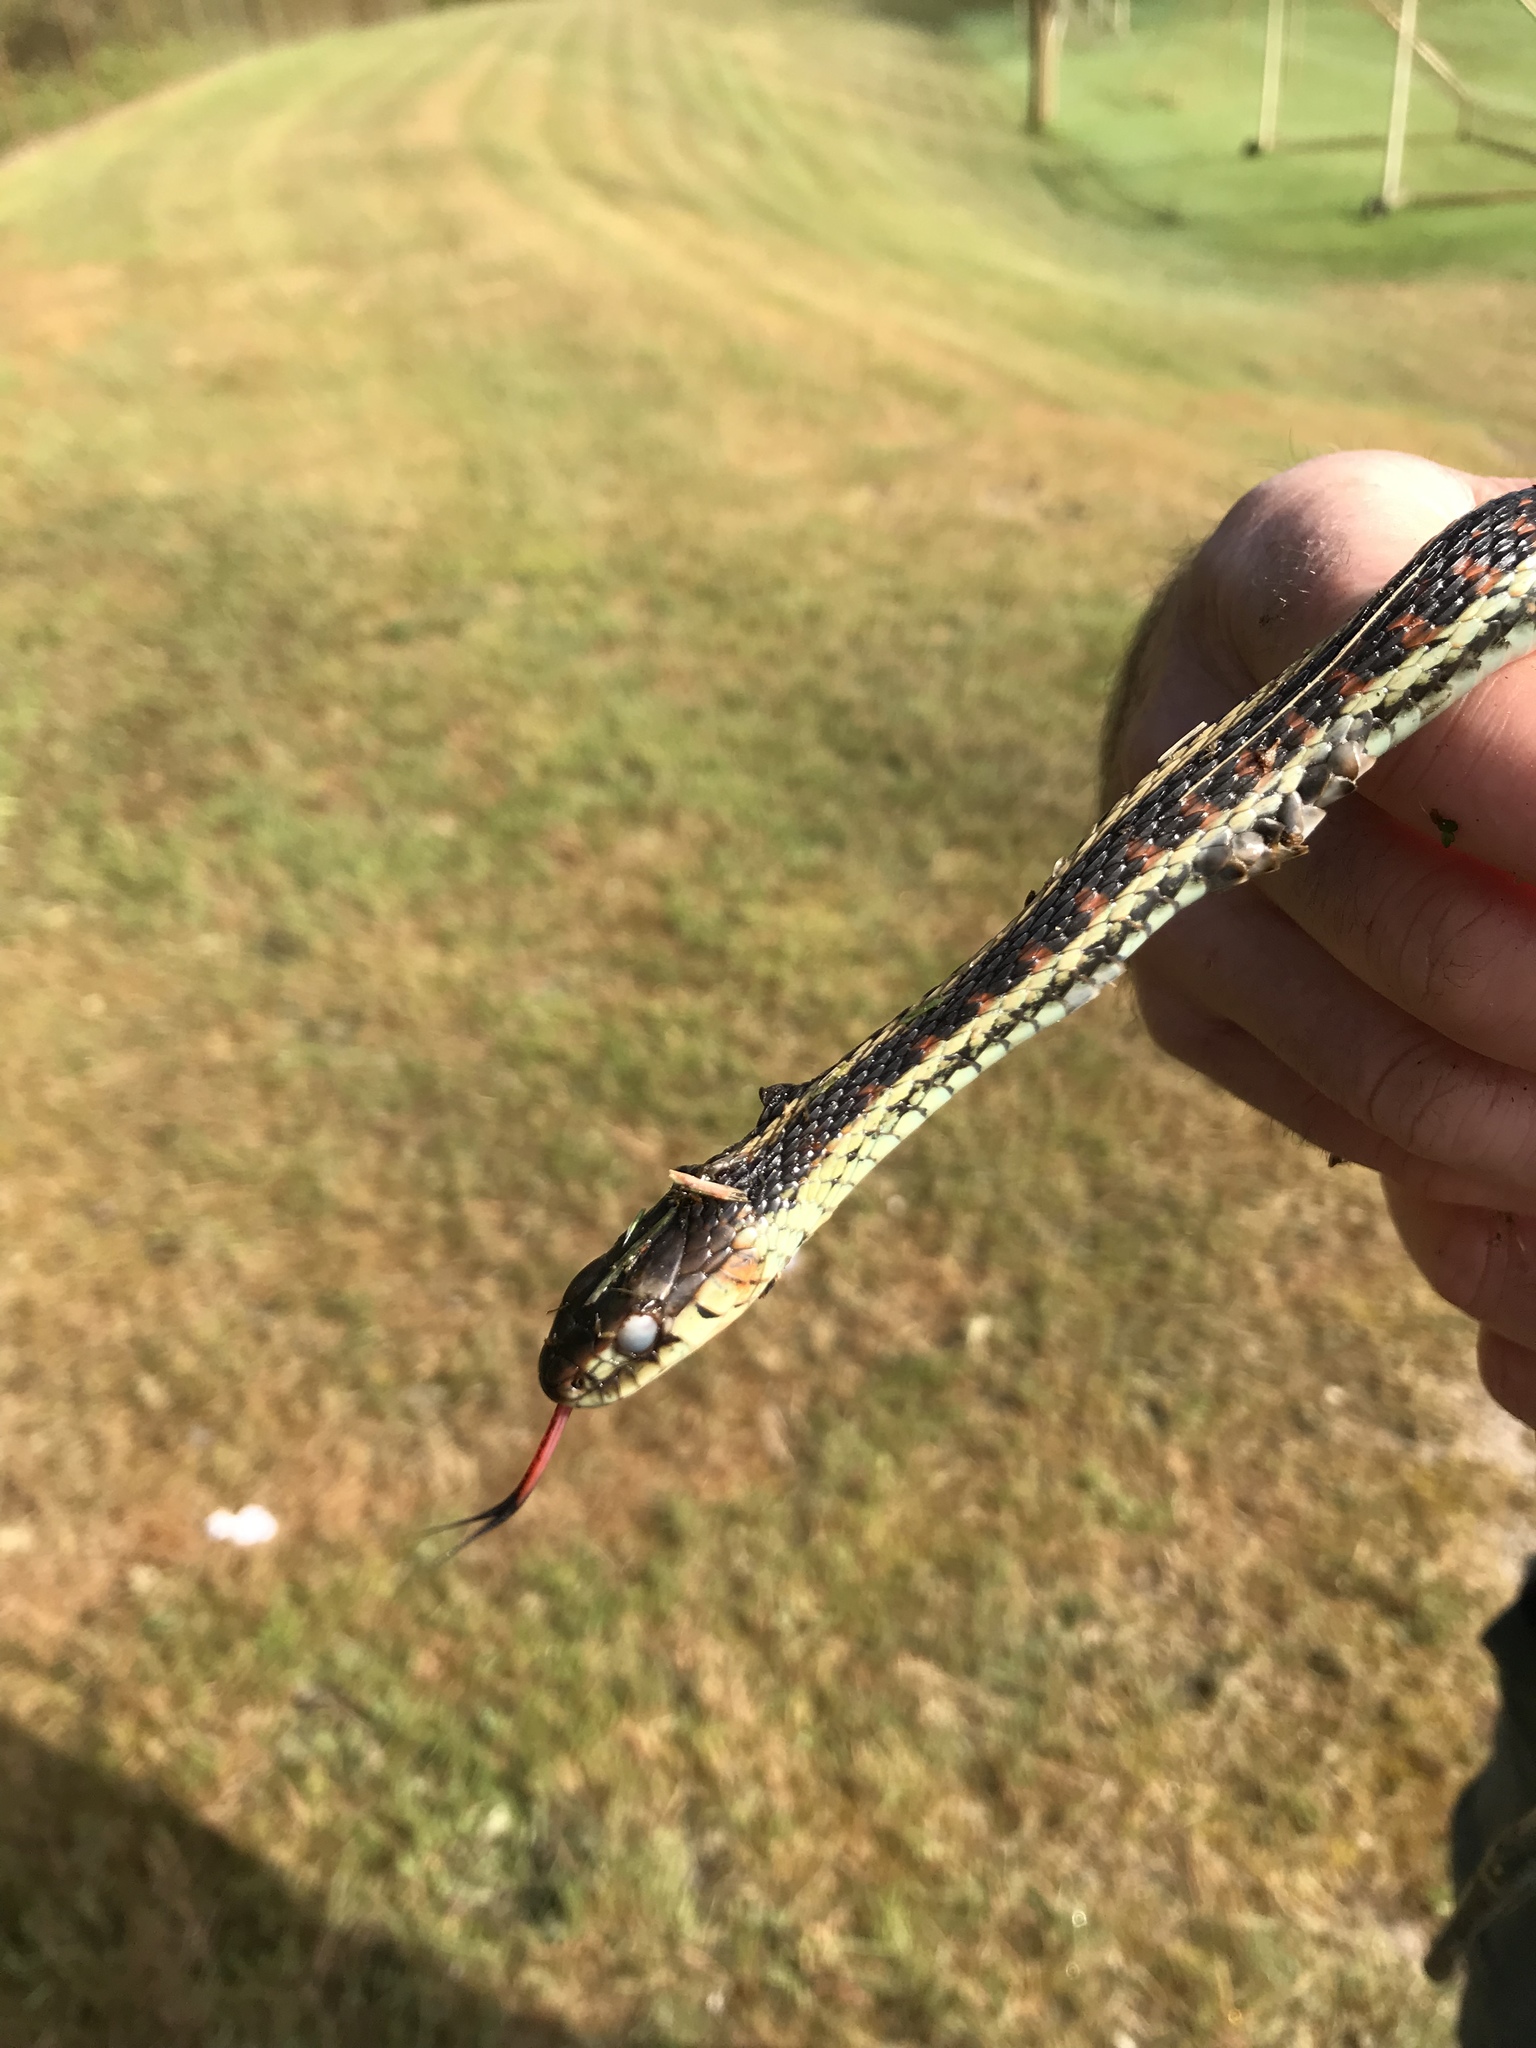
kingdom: Animalia
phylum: Chordata
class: Squamata
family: Colubridae
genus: Thamnophis
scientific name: Thamnophis sirtalis
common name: Common garter snake
